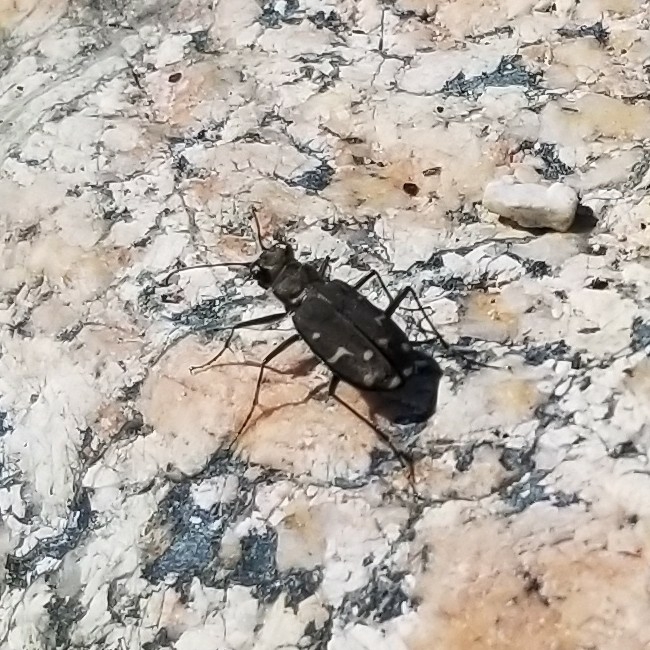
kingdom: Animalia
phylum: Arthropoda
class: Insecta
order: Coleoptera
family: Carabidae
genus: Cicindela
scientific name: Cicindela oregona
